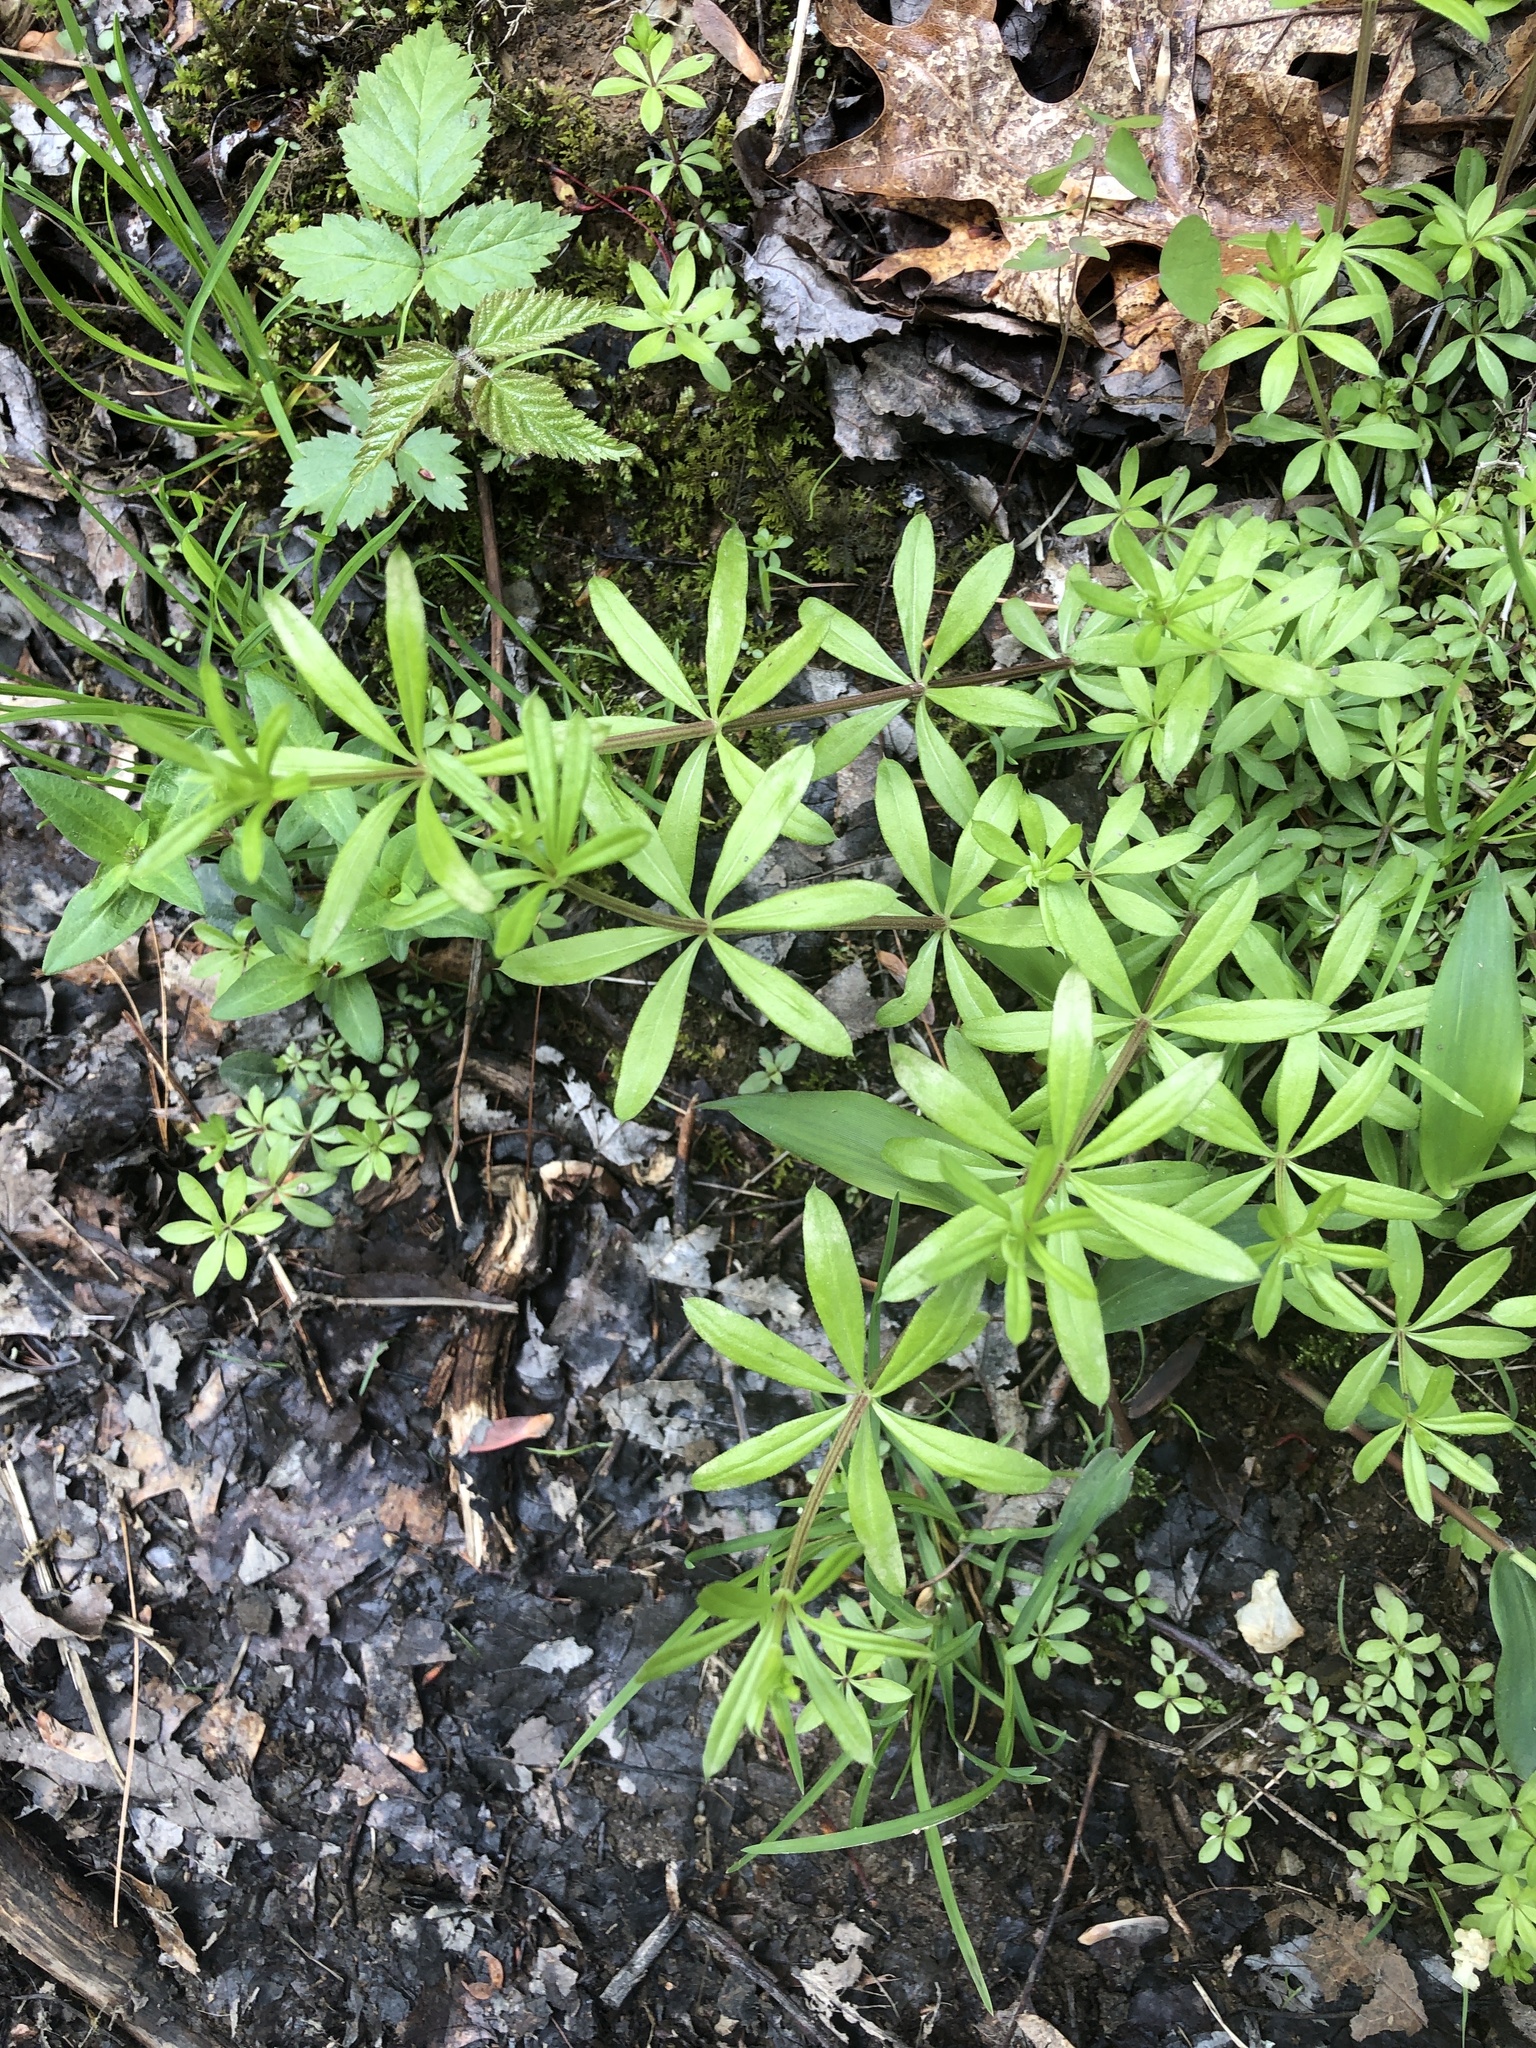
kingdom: Plantae
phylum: Tracheophyta
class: Magnoliopsida
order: Gentianales
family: Rubiaceae
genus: Galium
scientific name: Galium triflorum
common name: Fragrant bedstraw
